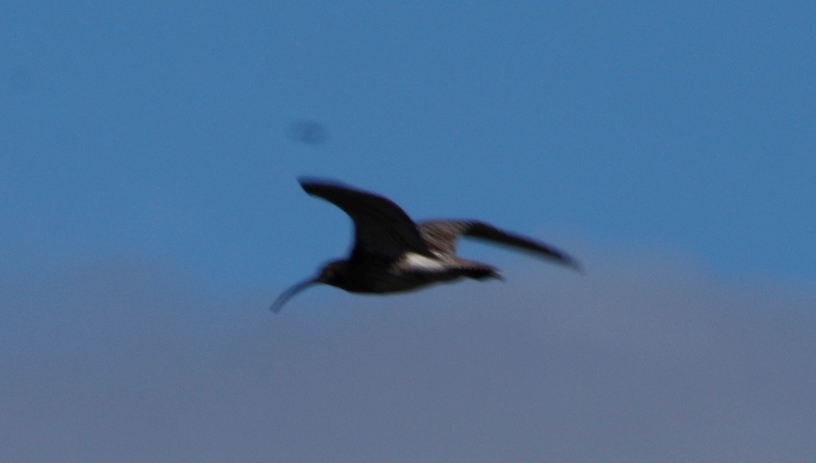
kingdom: Animalia
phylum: Chordata
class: Aves
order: Charadriiformes
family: Scolopacidae
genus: Numenius
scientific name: Numenius arquata
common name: Eurasian curlew
